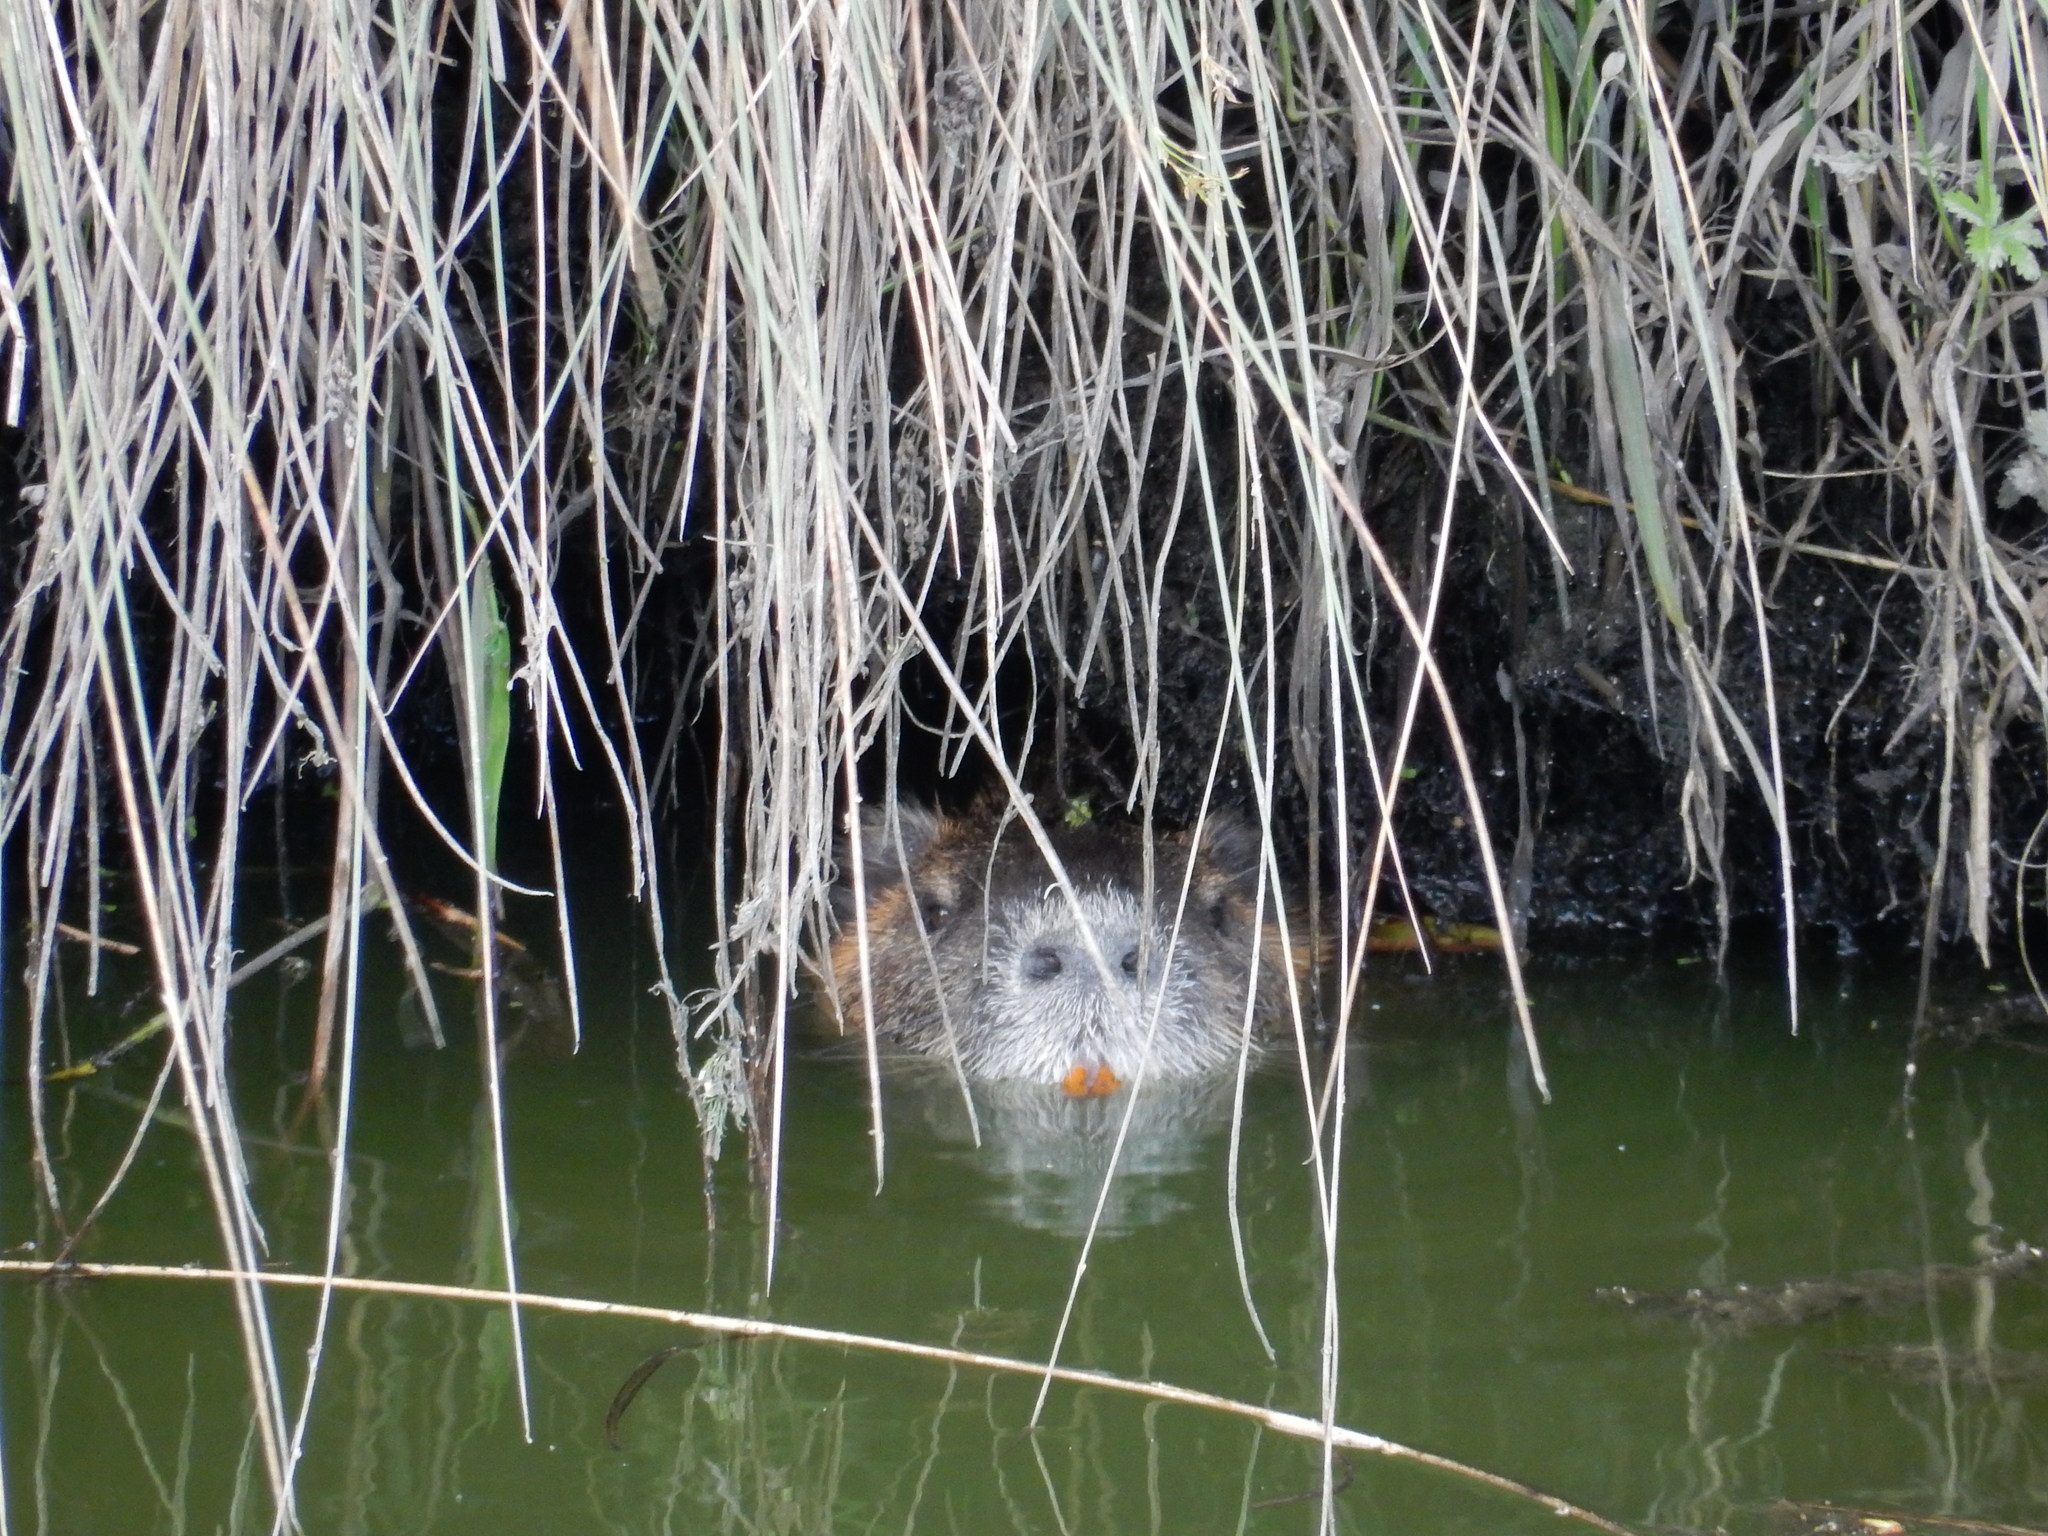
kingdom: Animalia
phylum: Chordata
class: Mammalia
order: Rodentia
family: Myocastoridae
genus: Myocastor
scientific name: Myocastor coypus
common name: Coypu
